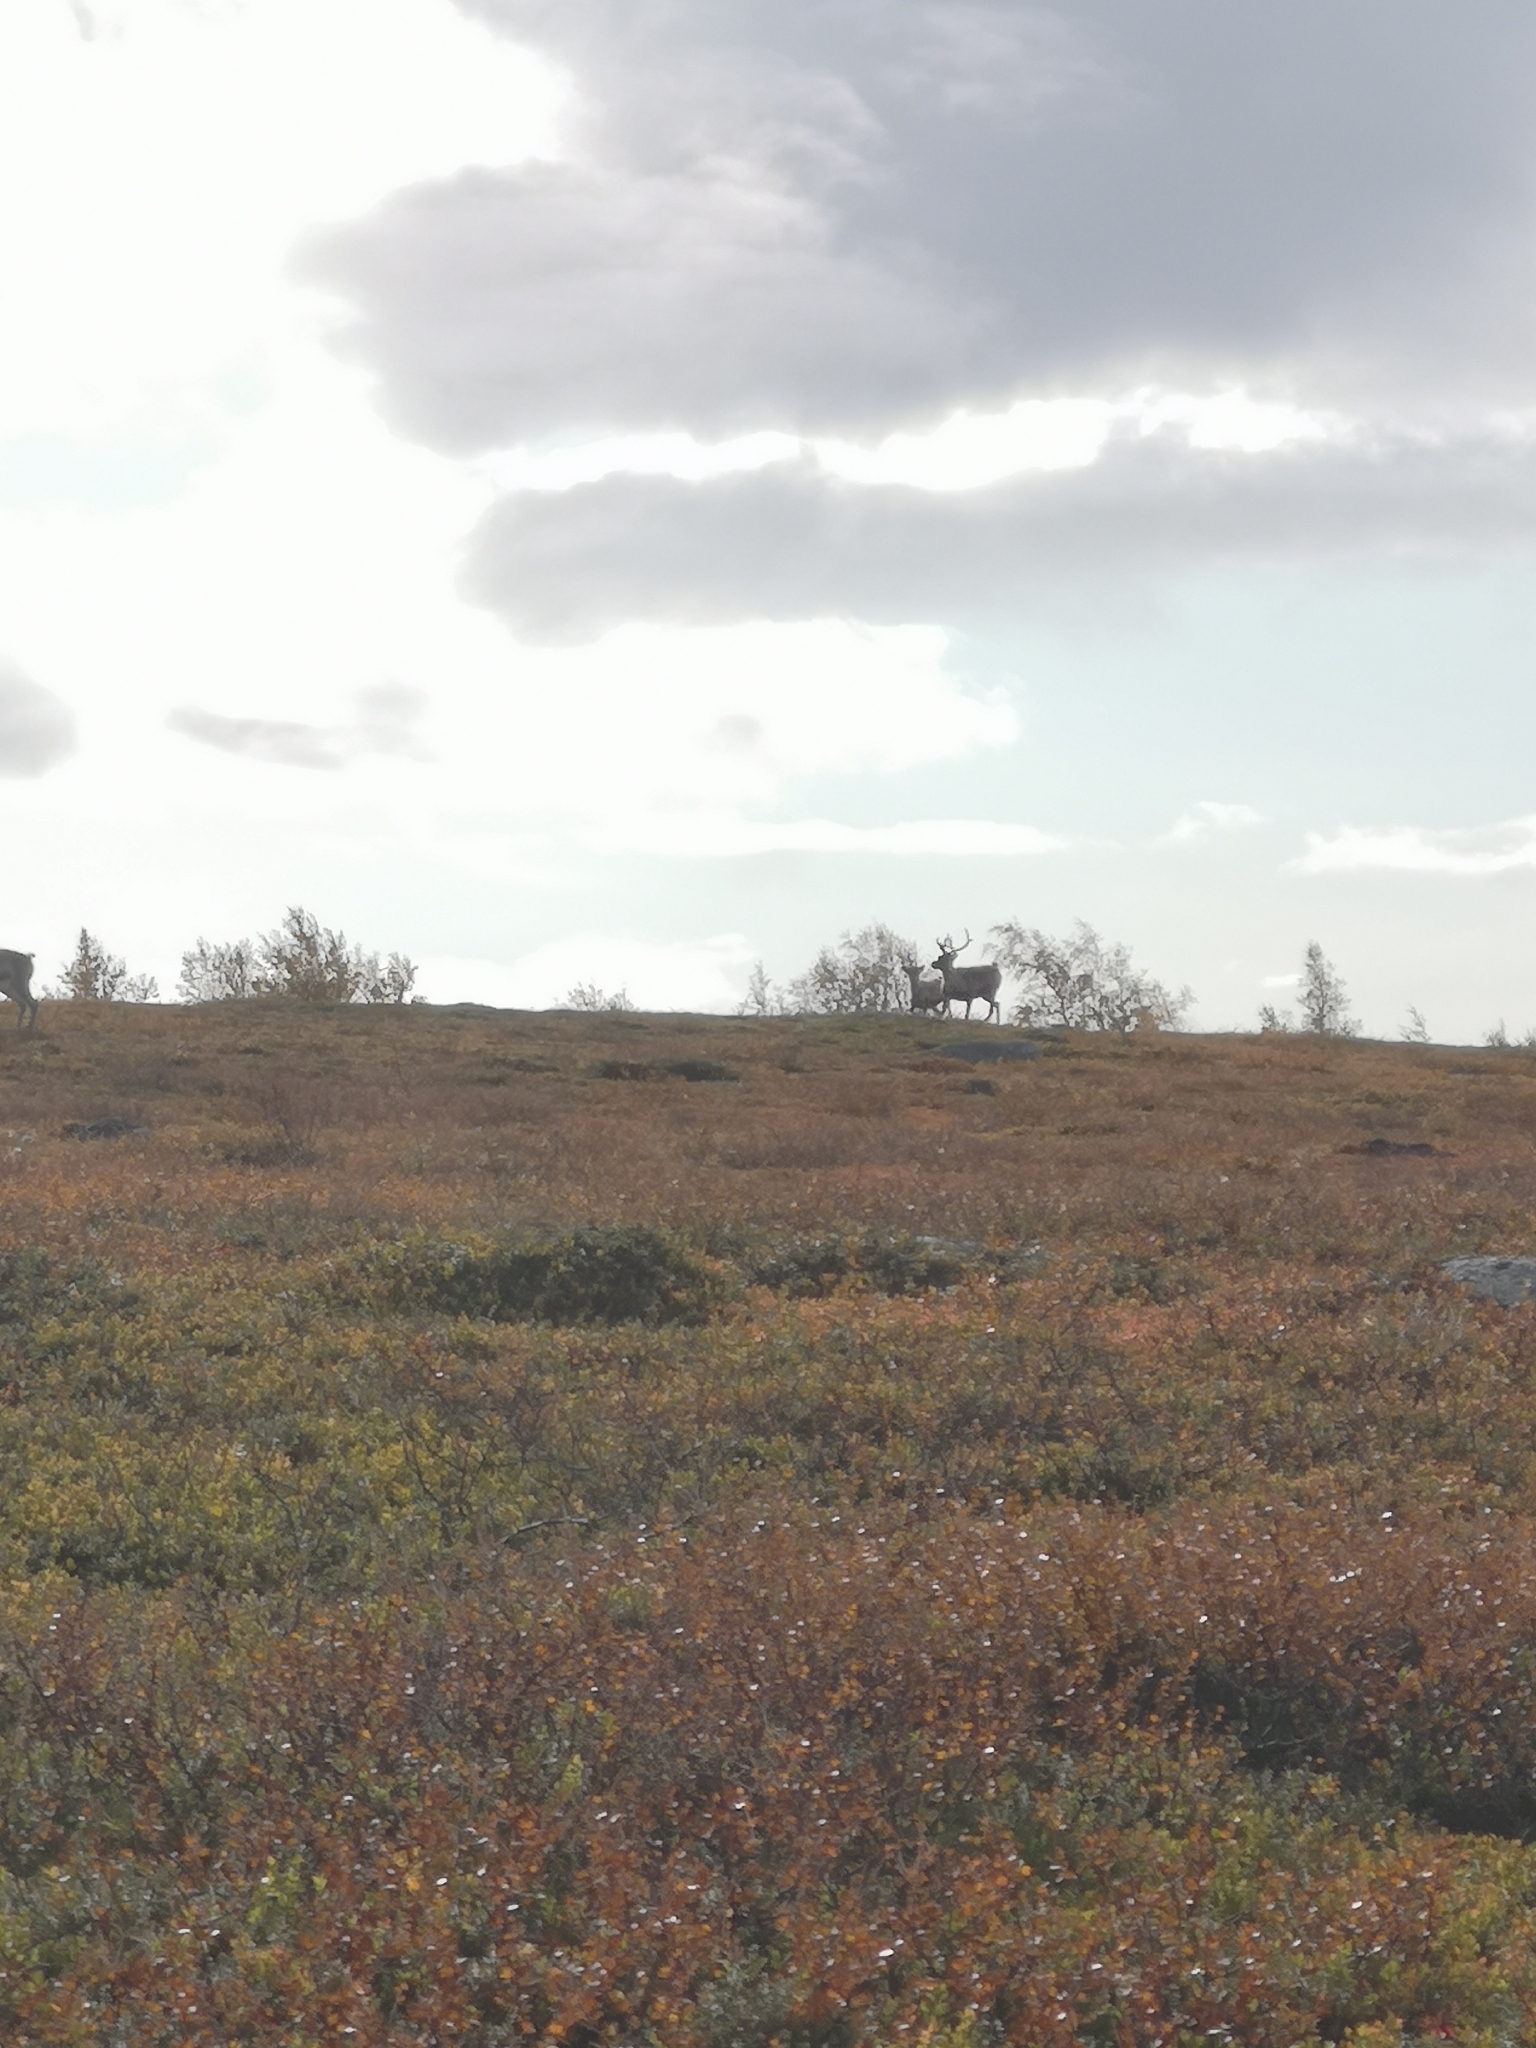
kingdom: Animalia
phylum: Chordata
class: Mammalia
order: Artiodactyla
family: Cervidae
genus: Rangifer
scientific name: Rangifer tarandus
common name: Reindeer
